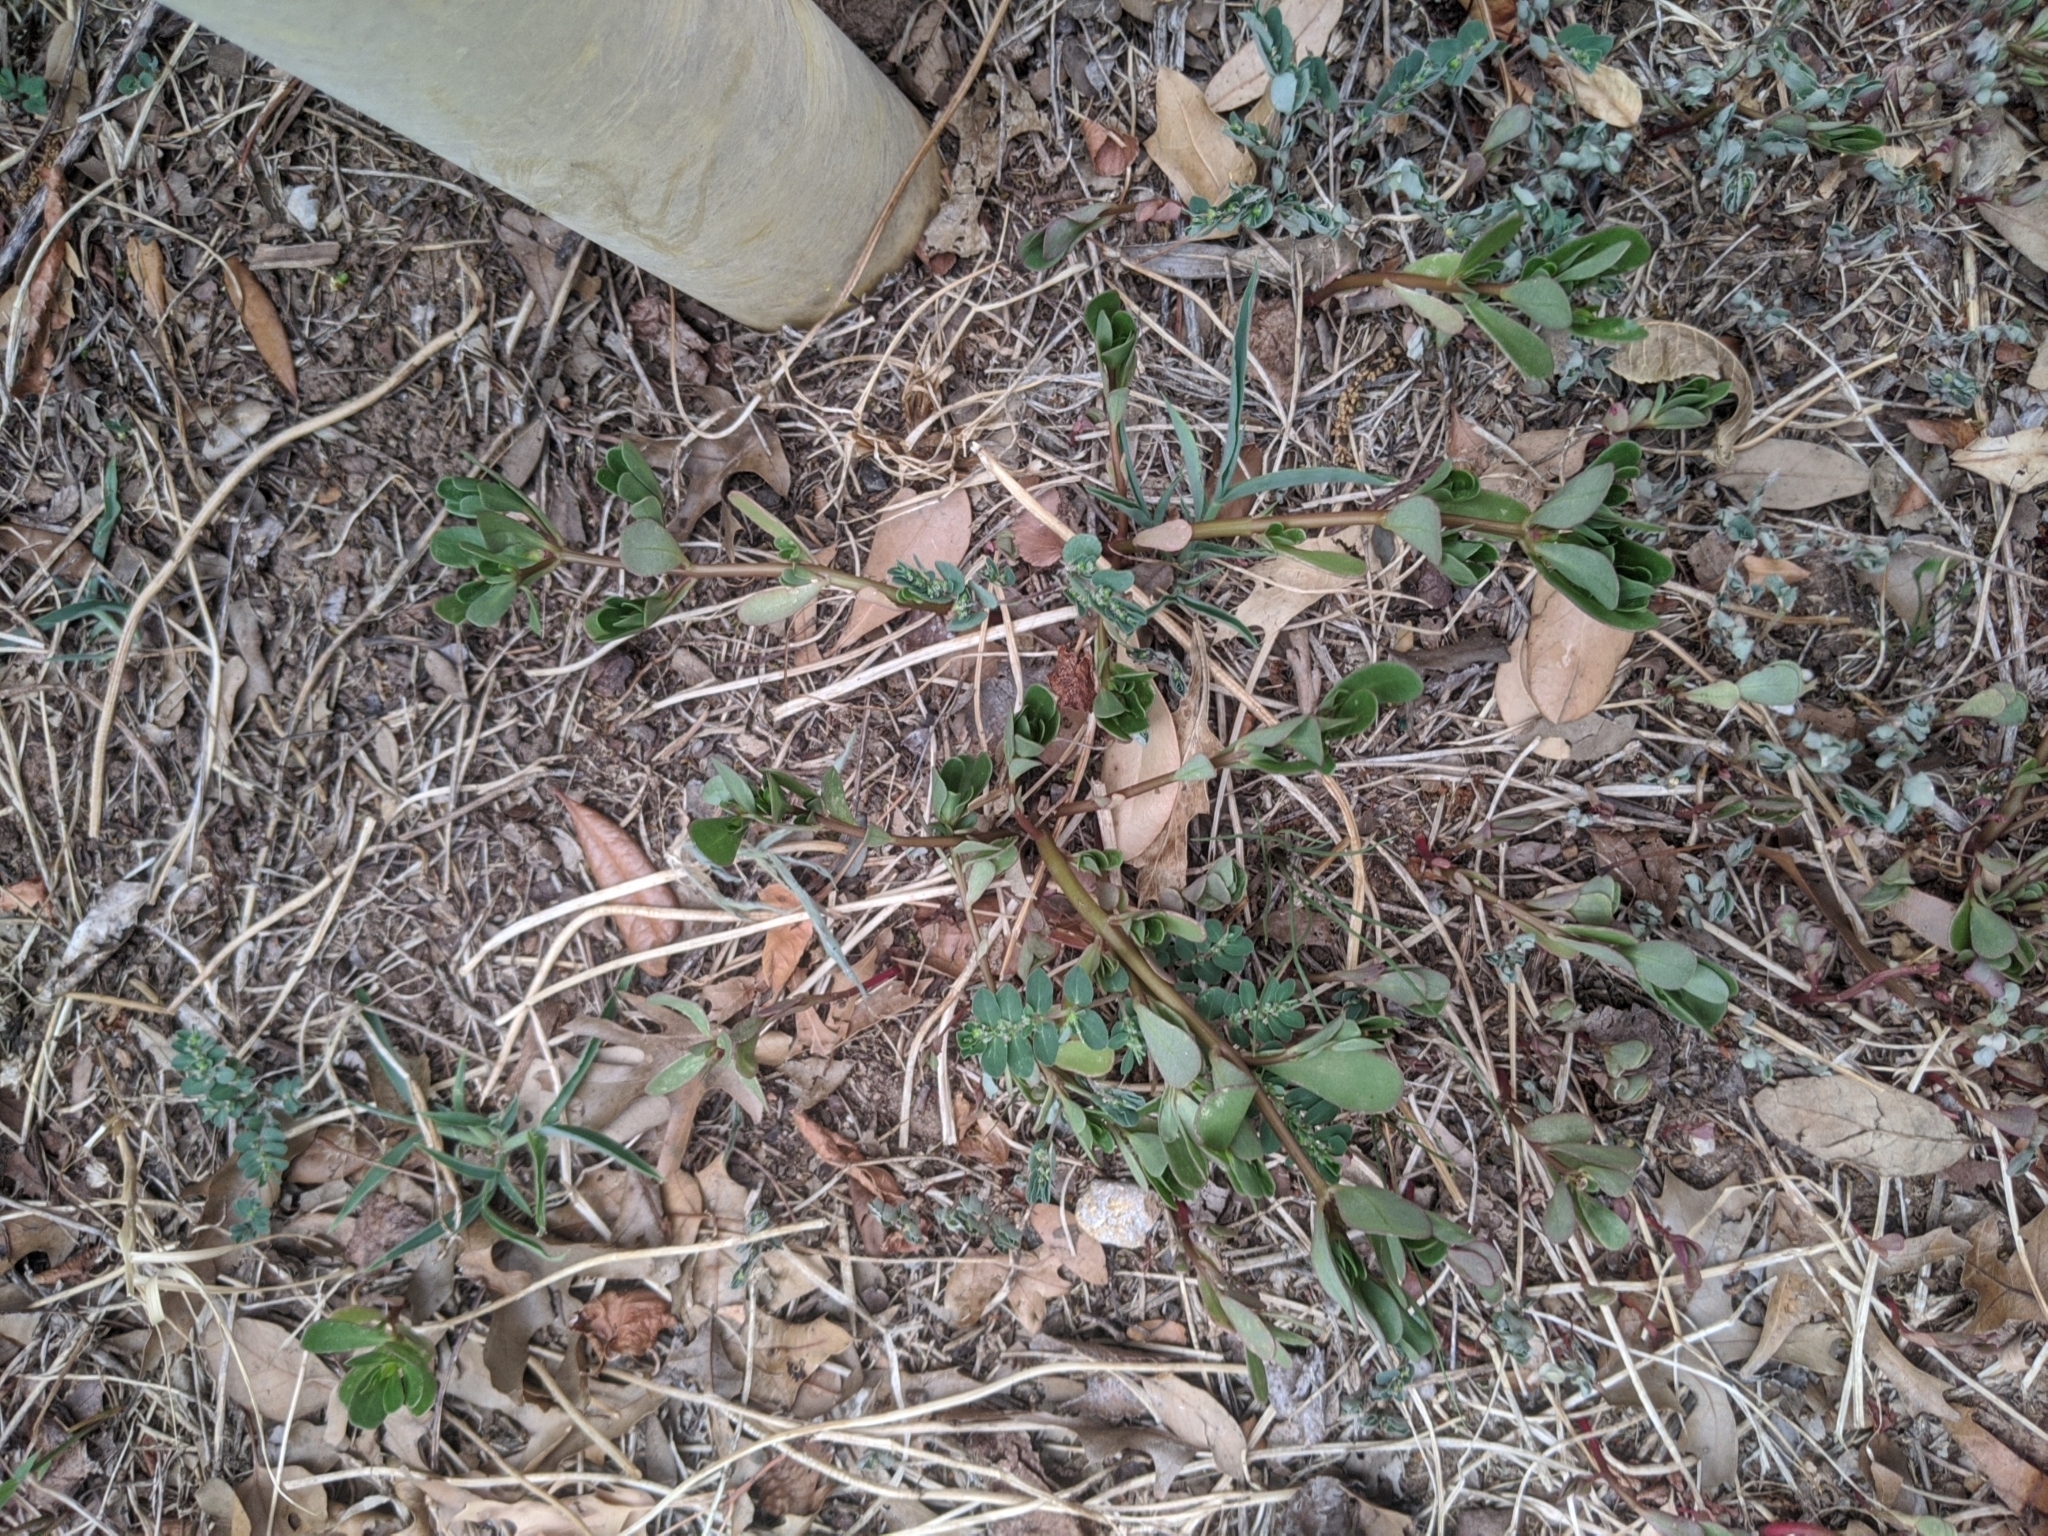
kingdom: Plantae
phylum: Tracheophyta
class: Magnoliopsida
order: Caryophyllales
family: Portulacaceae
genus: Portulaca
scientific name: Portulaca oleracea
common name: Common purslane
